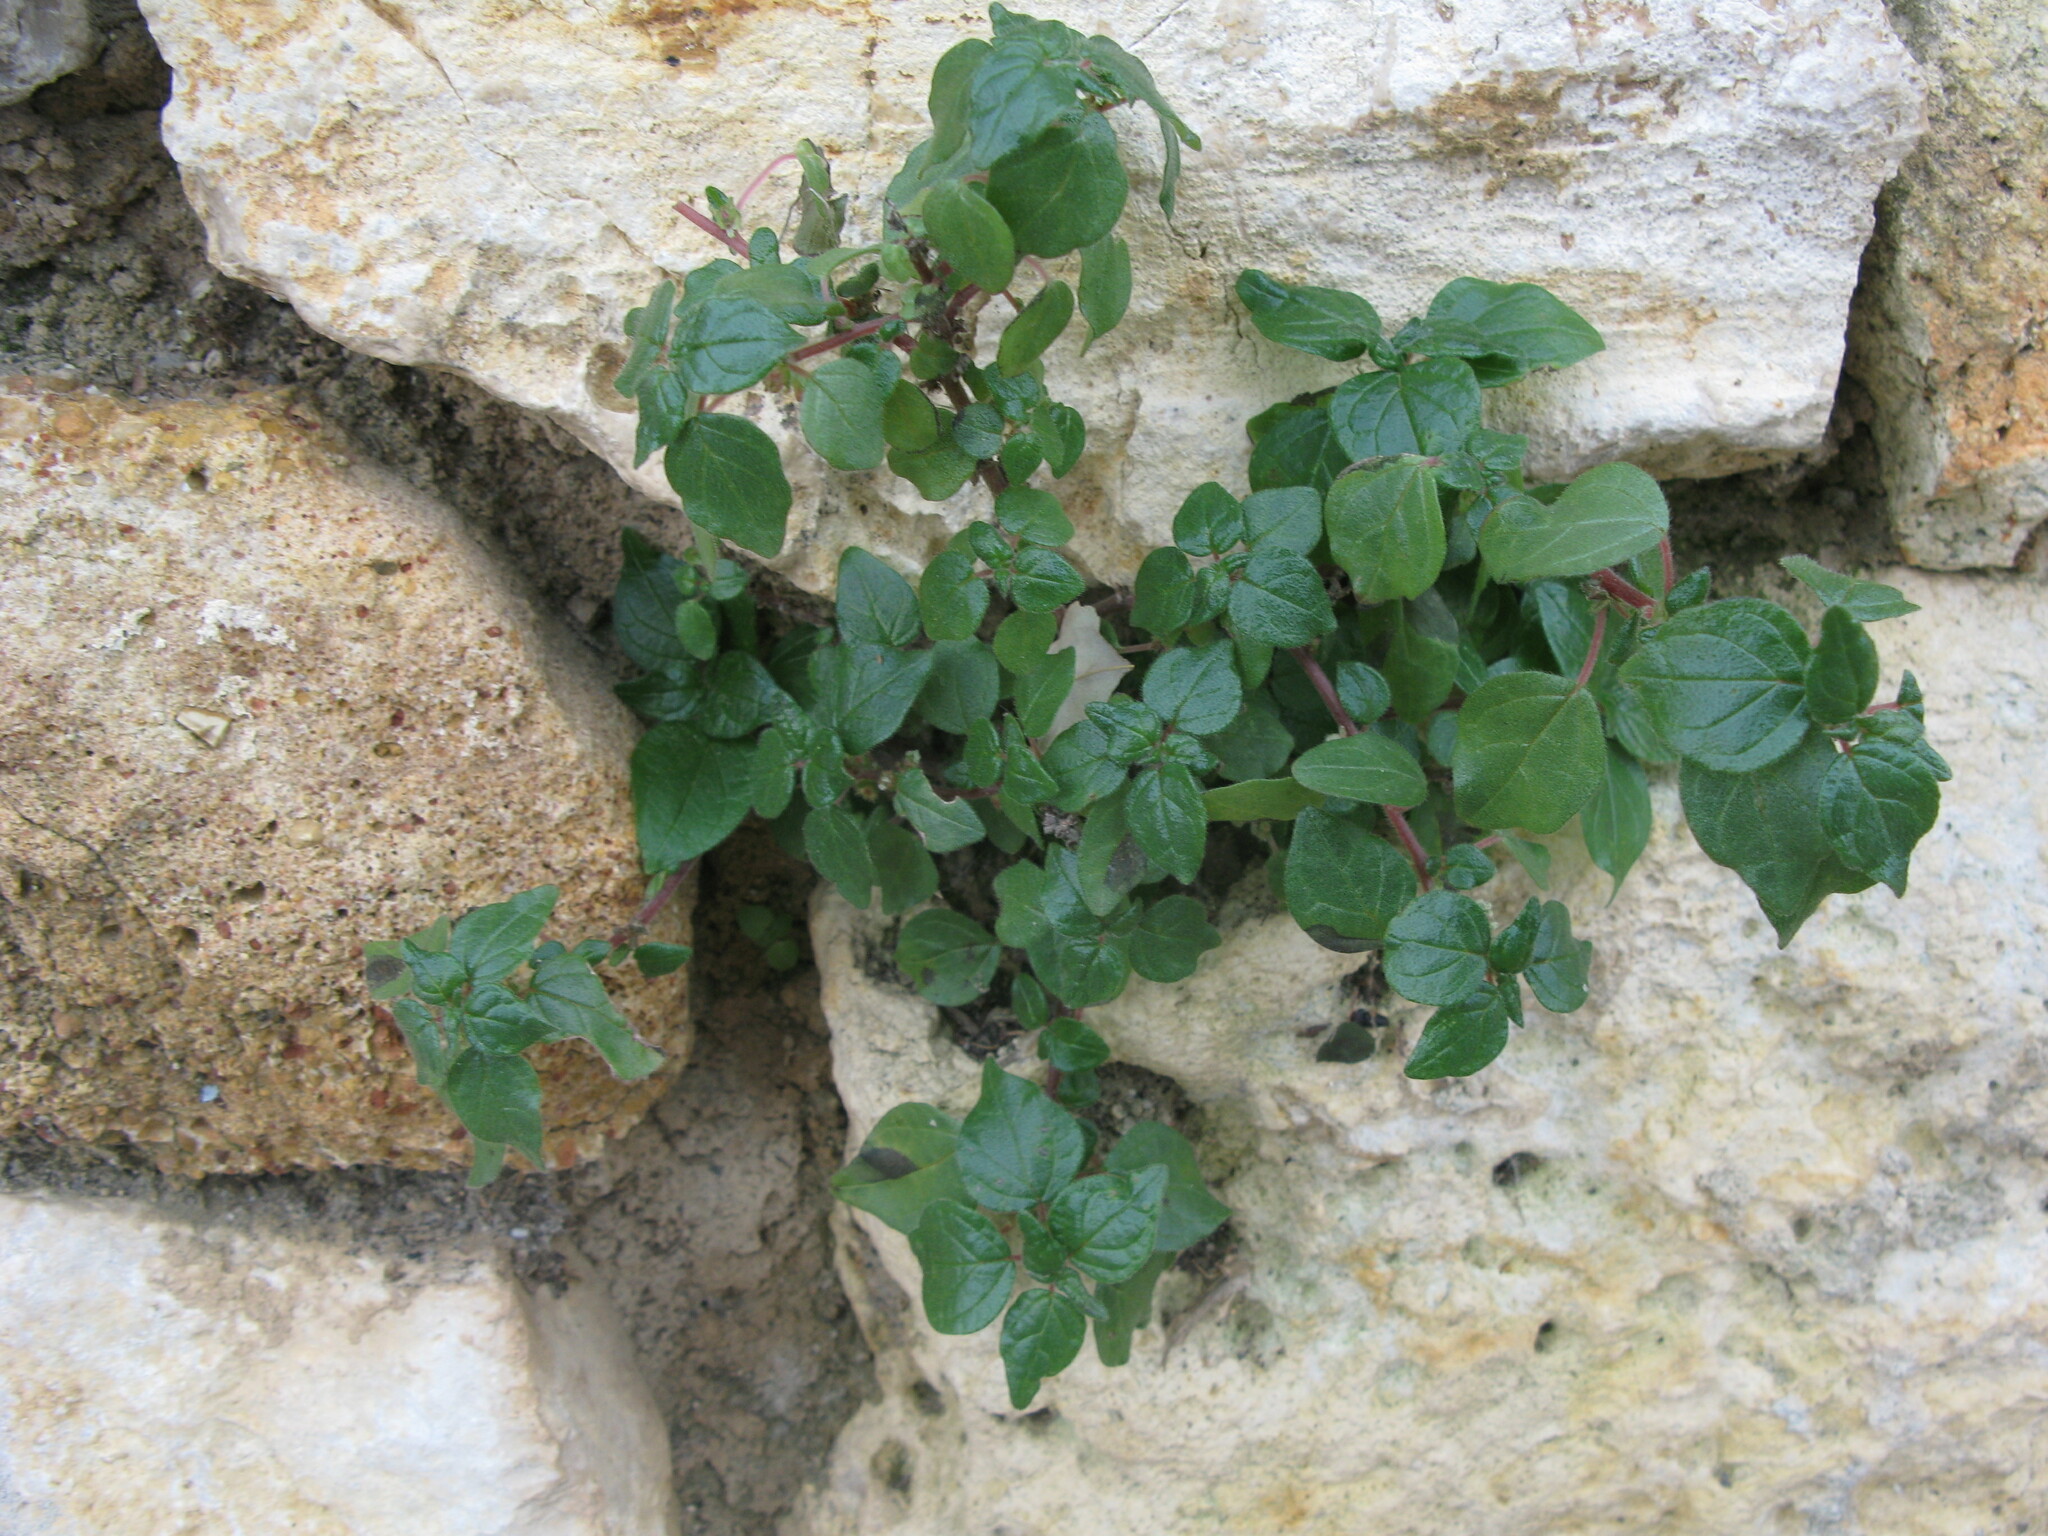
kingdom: Plantae
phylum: Tracheophyta
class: Magnoliopsida
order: Rosales
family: Urticaceae
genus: Parietaria
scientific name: Parietaria judaica
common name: Pellitory-of-the-wall
